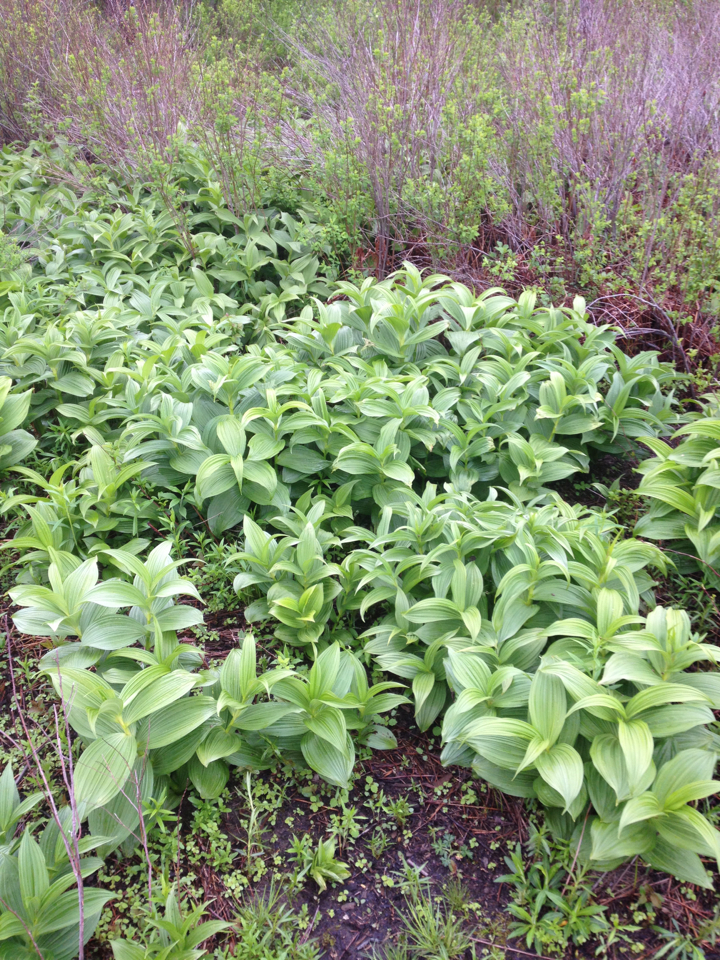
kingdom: Plantae
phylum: Tracheophyta
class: Liliopsida
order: Liliales
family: Melanthiaceae
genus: Veratrum
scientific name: Veratrum viride
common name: American false hellebore
